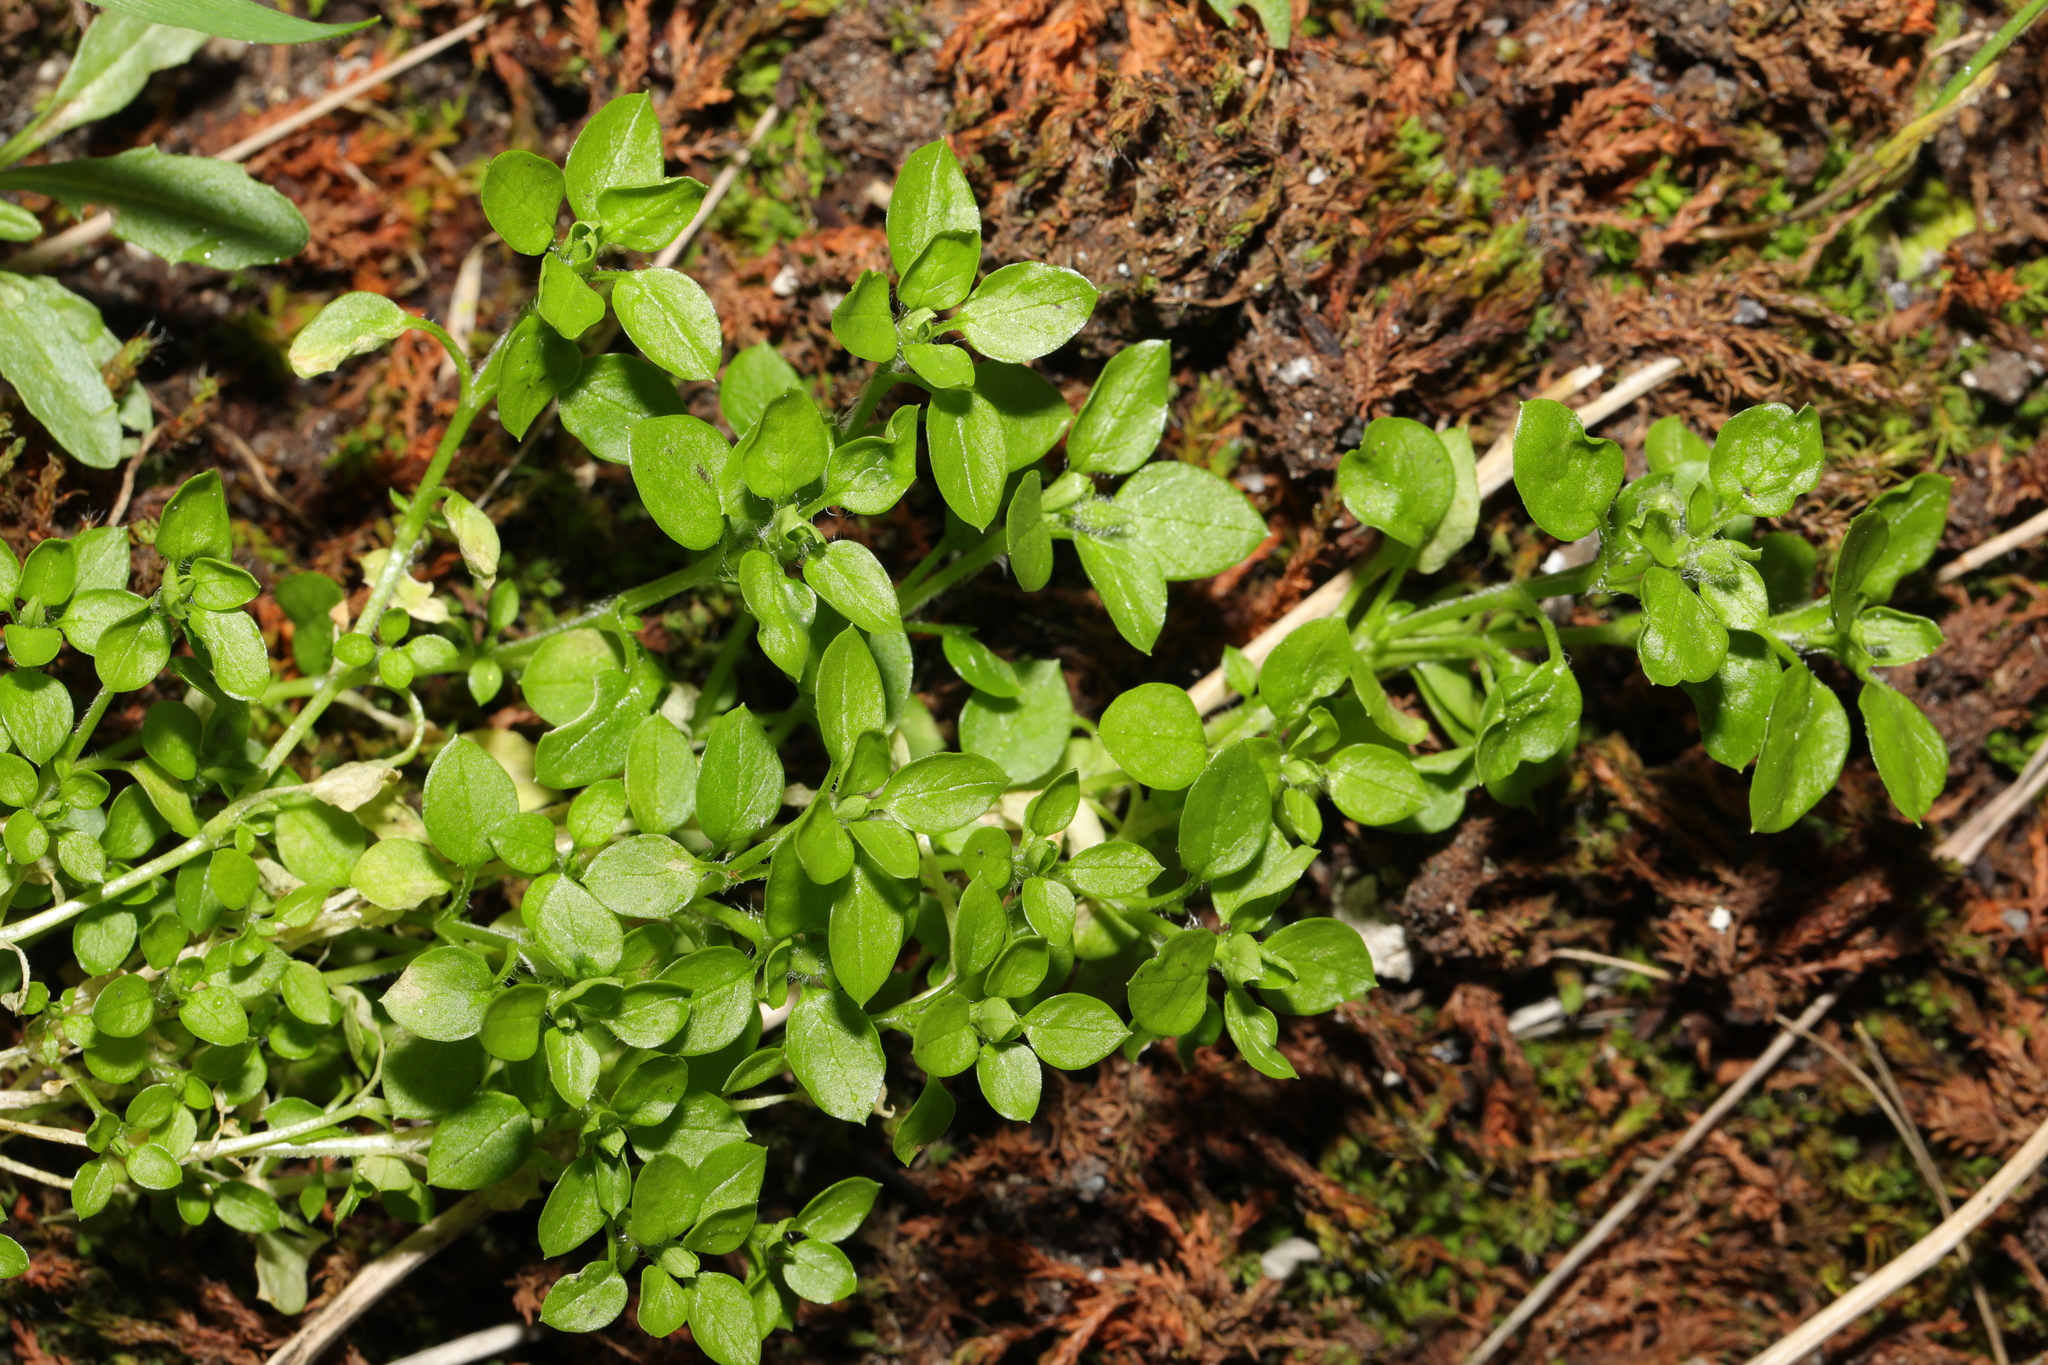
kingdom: Plantae
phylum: Tracheophyta
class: Magnoliopsida
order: Caryophyllales
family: Caryophyllaceae
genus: Stellaria
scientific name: Stellaria media
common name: Common chickweed
